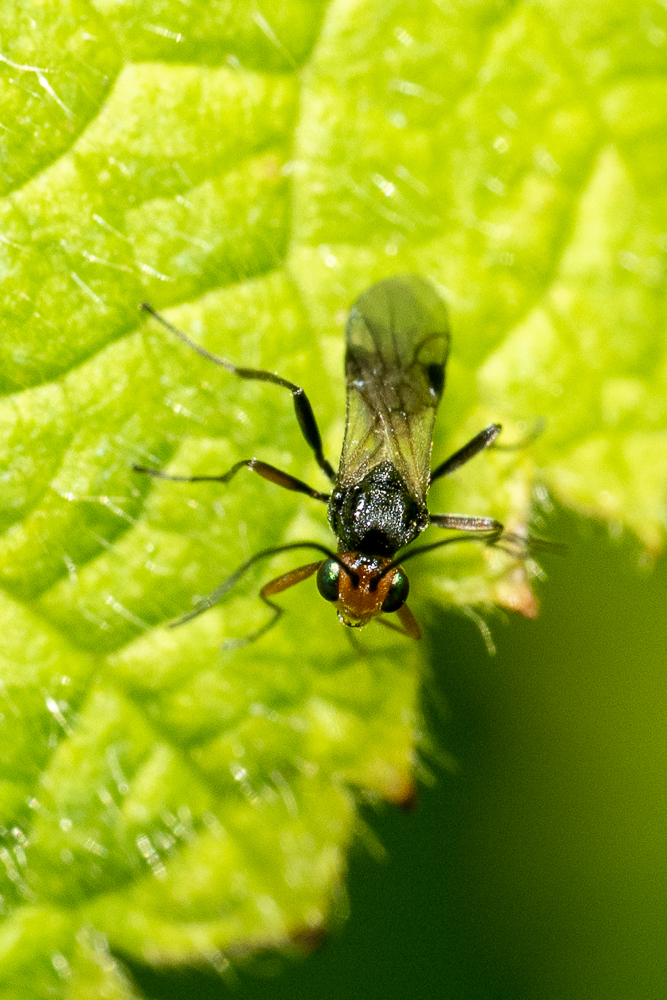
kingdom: Animalia
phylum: Arthropoda
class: Insecta
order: Hymenoptera
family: Braconidae
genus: Dinocampus
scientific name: Dinocampus coccinellae
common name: Braconid wasp
